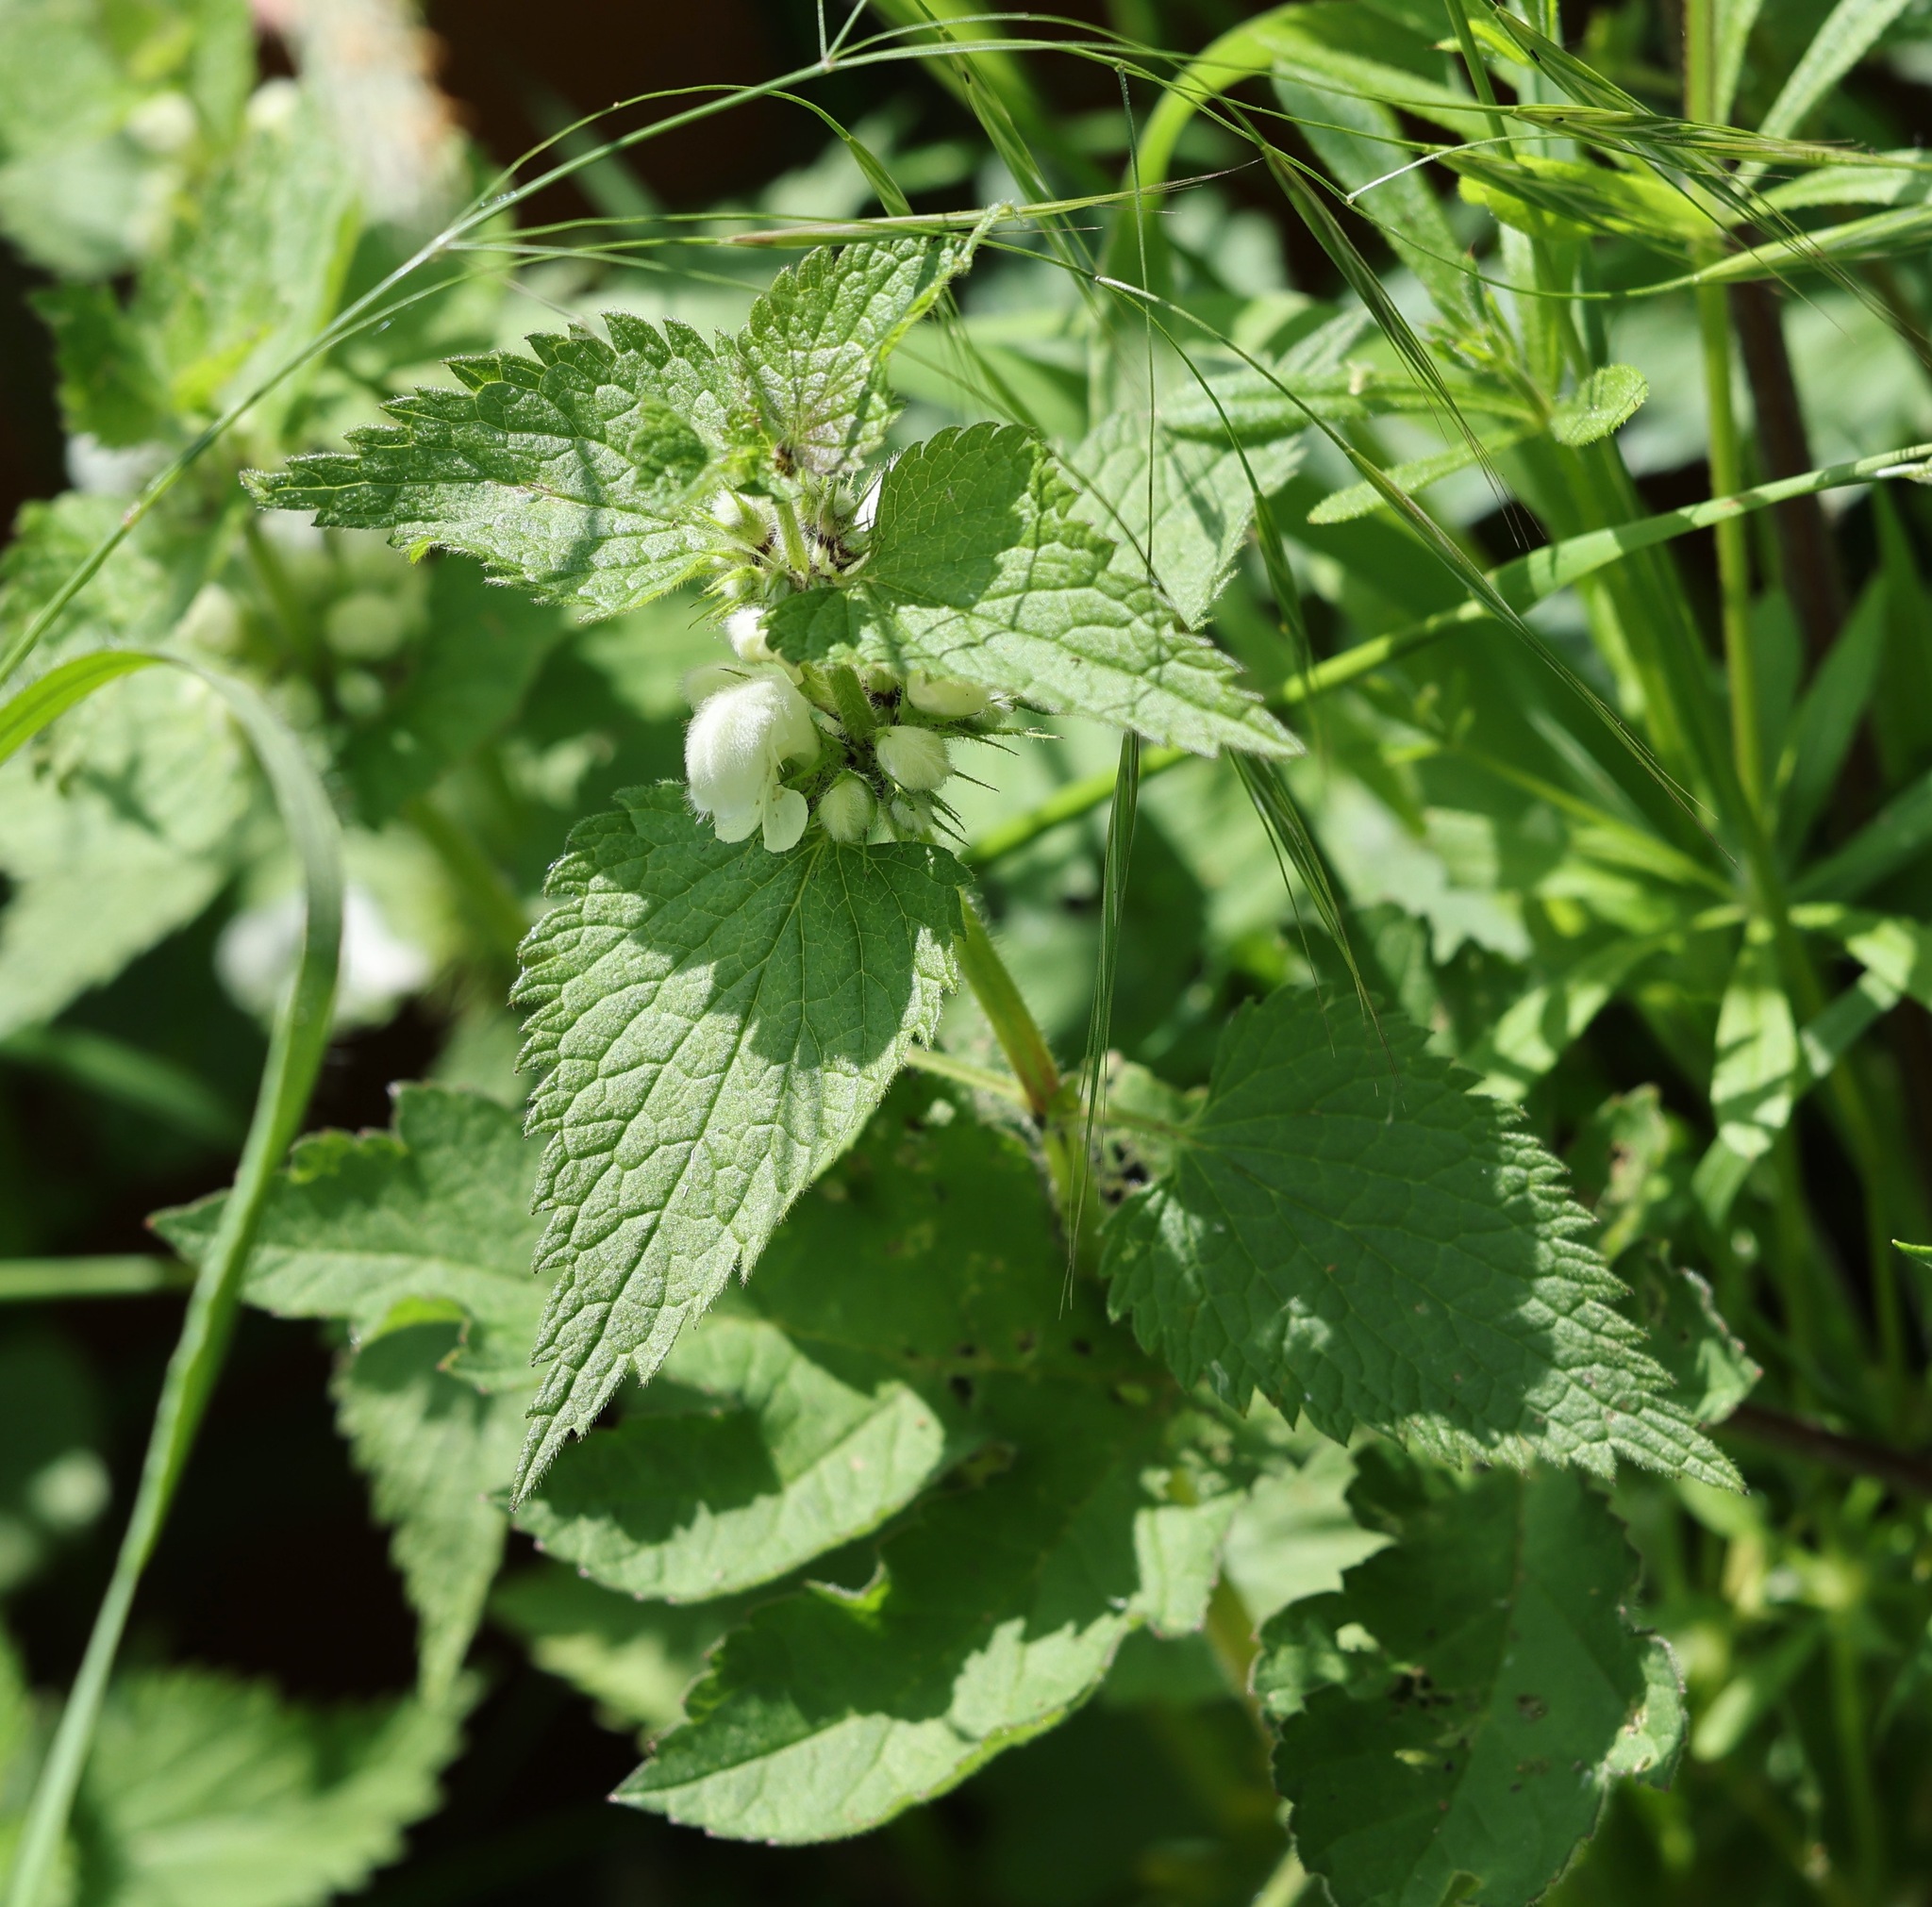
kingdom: Plantae
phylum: Tracheophyta
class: Magnoliopsida
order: Lamiales
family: Lamiaceae
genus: Lamium
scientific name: Lamium album
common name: White dead-nettle
